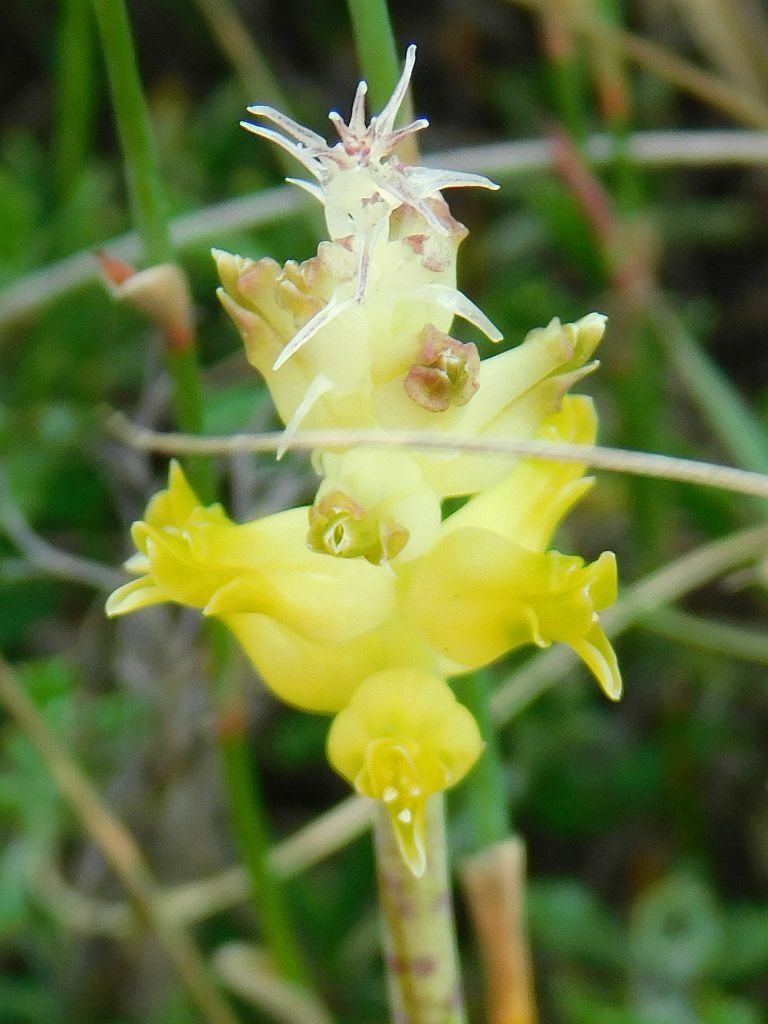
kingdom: Plantae
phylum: Tracheophyta
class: Liliopsida
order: Asparagales
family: Asparagaceae
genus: Lachenalia
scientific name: Lachenalia lutea
